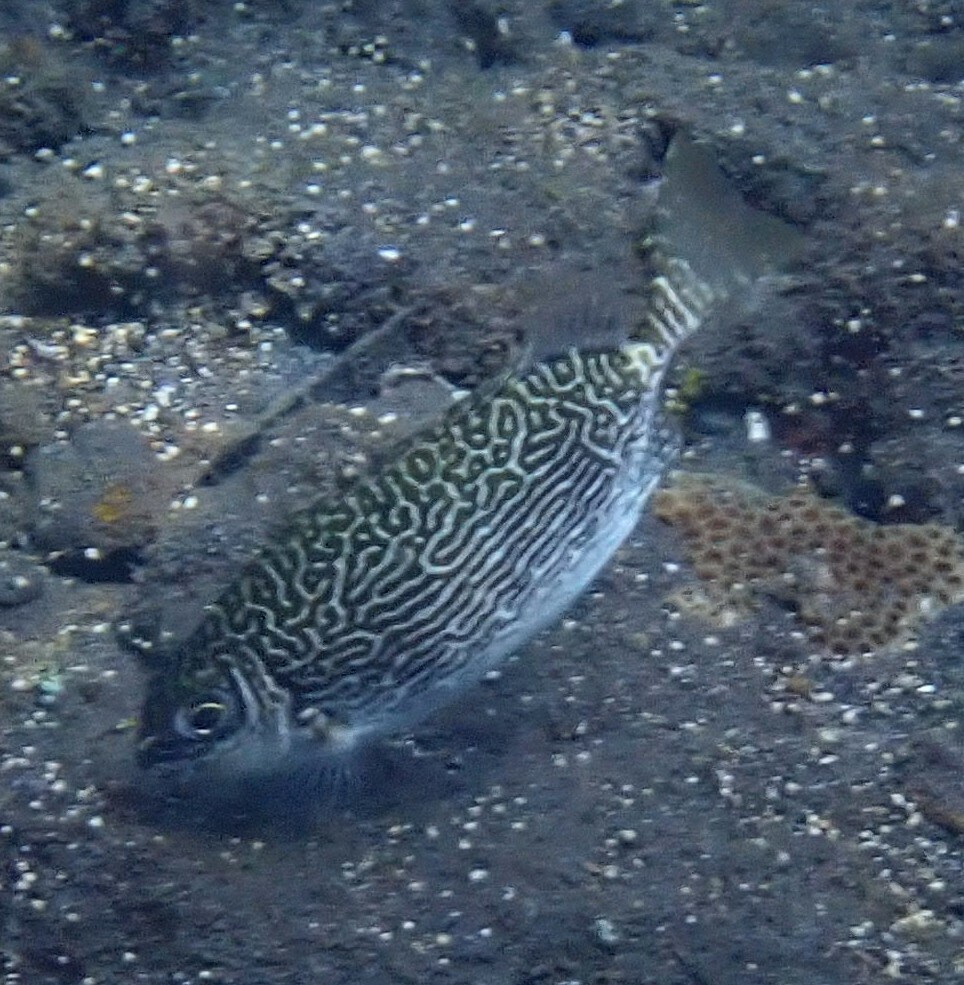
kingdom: Animalia
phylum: Chordata
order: Perciformes
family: Siganidae
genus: Siganus
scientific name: Siganus spinus
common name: Scribbled rabbitfish
